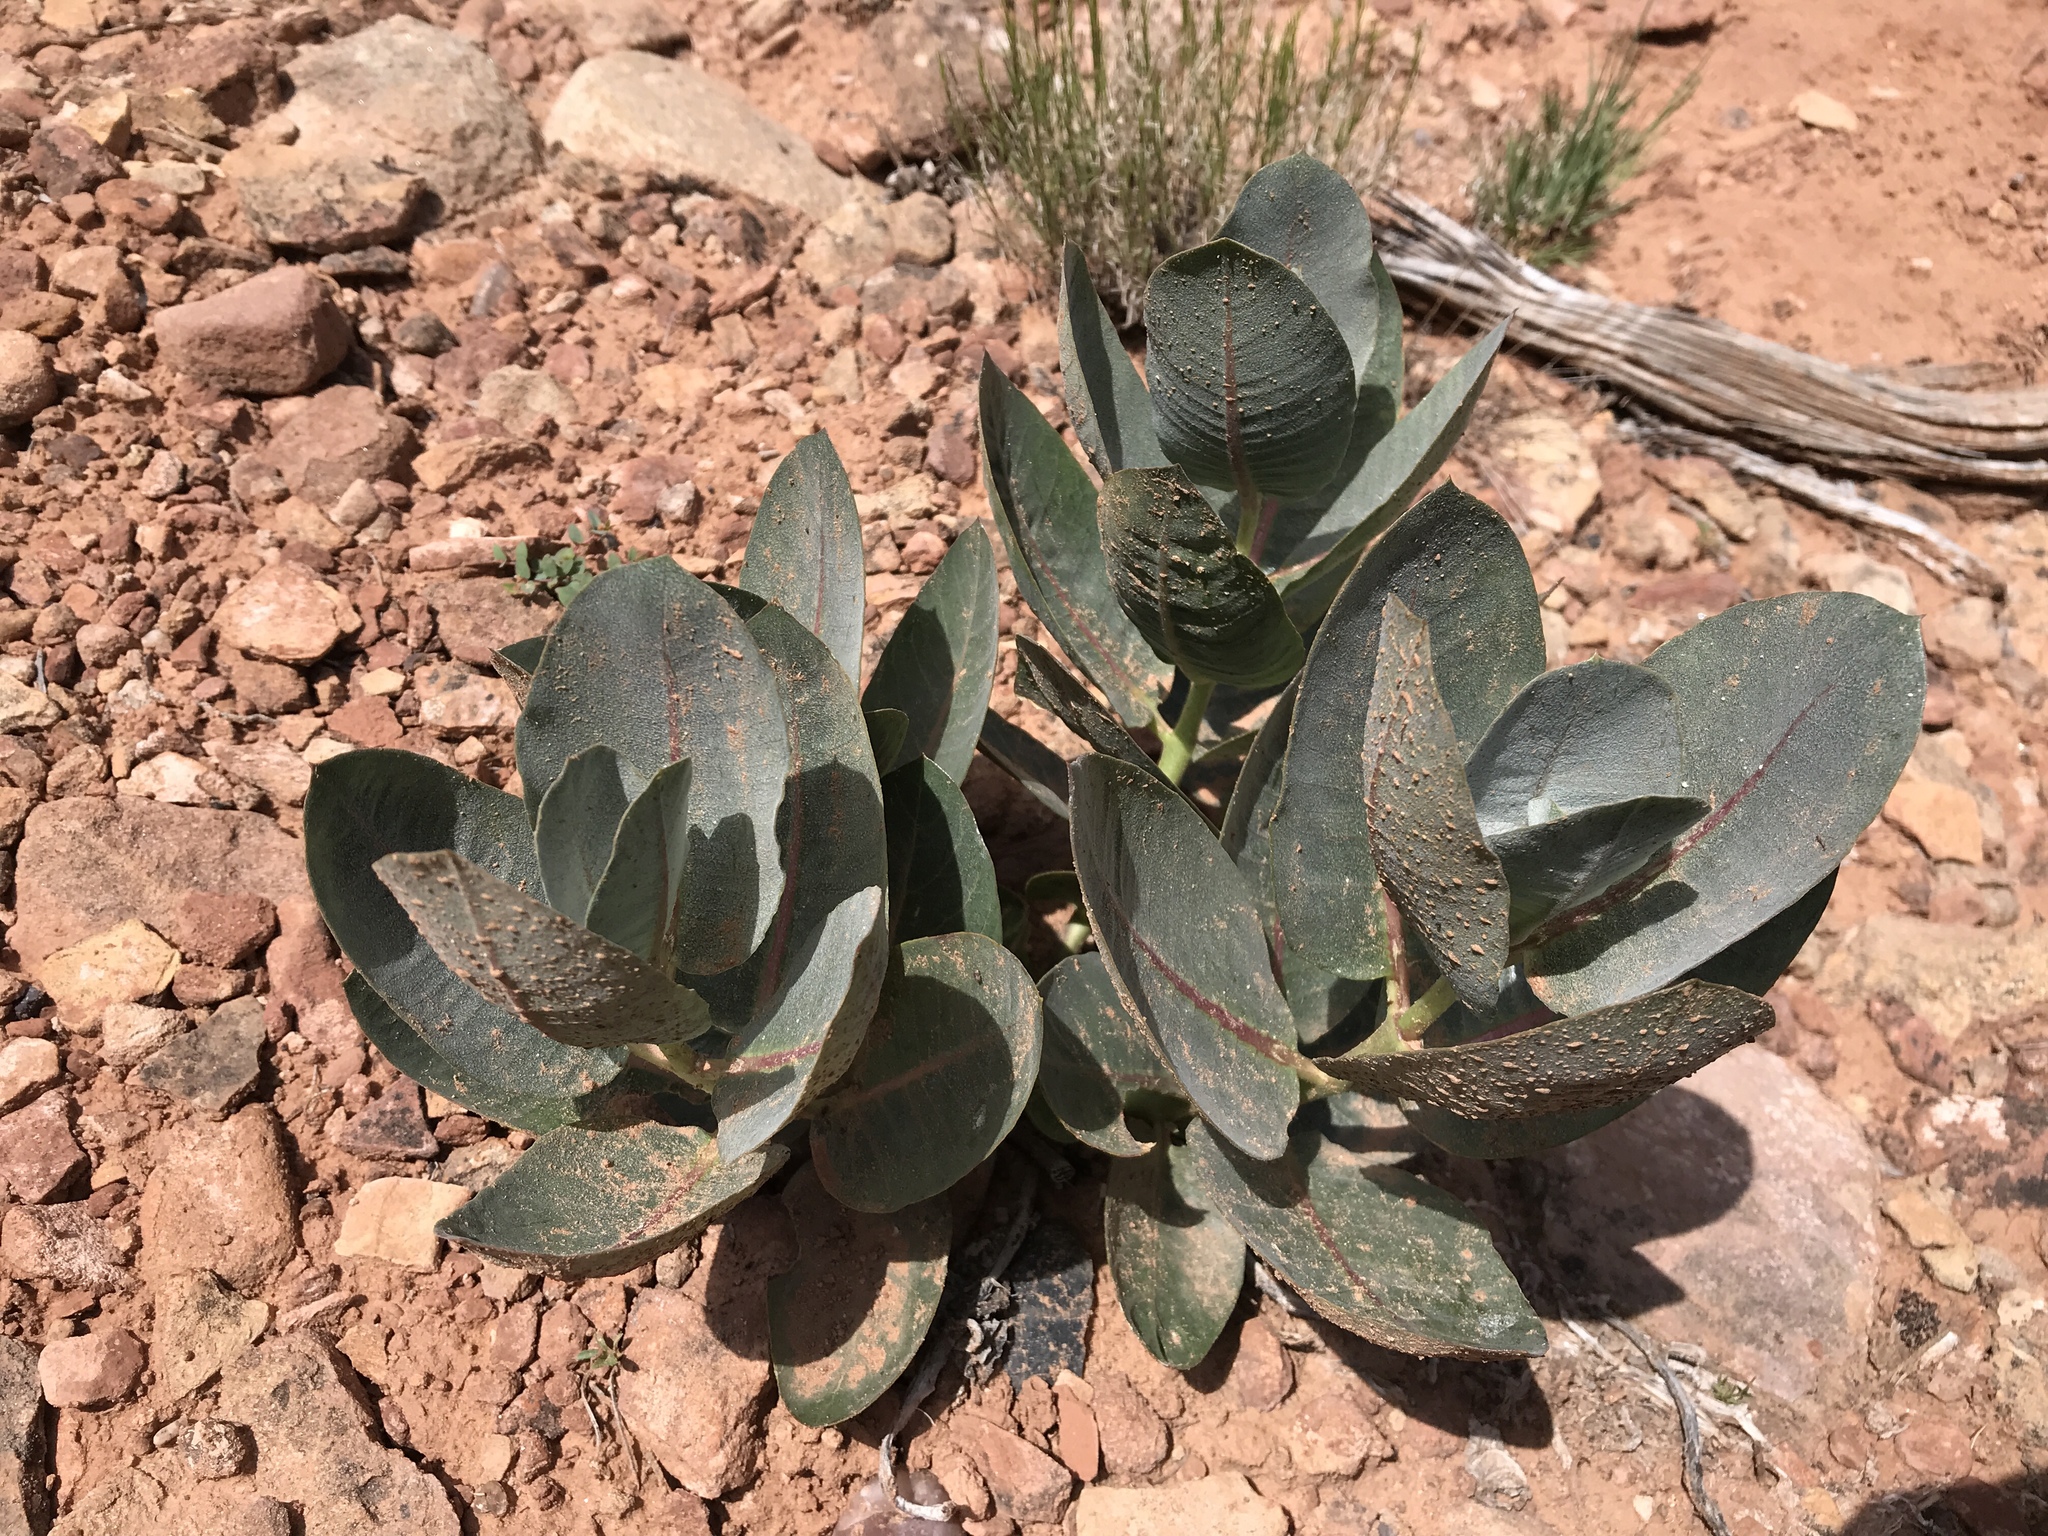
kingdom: Plantae
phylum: Tracheophyta
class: Magnoliopsida
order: Gentianales
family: Apocynaceae
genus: Asclepias
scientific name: Asclepias latifolia
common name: Broadleaf milkweed
